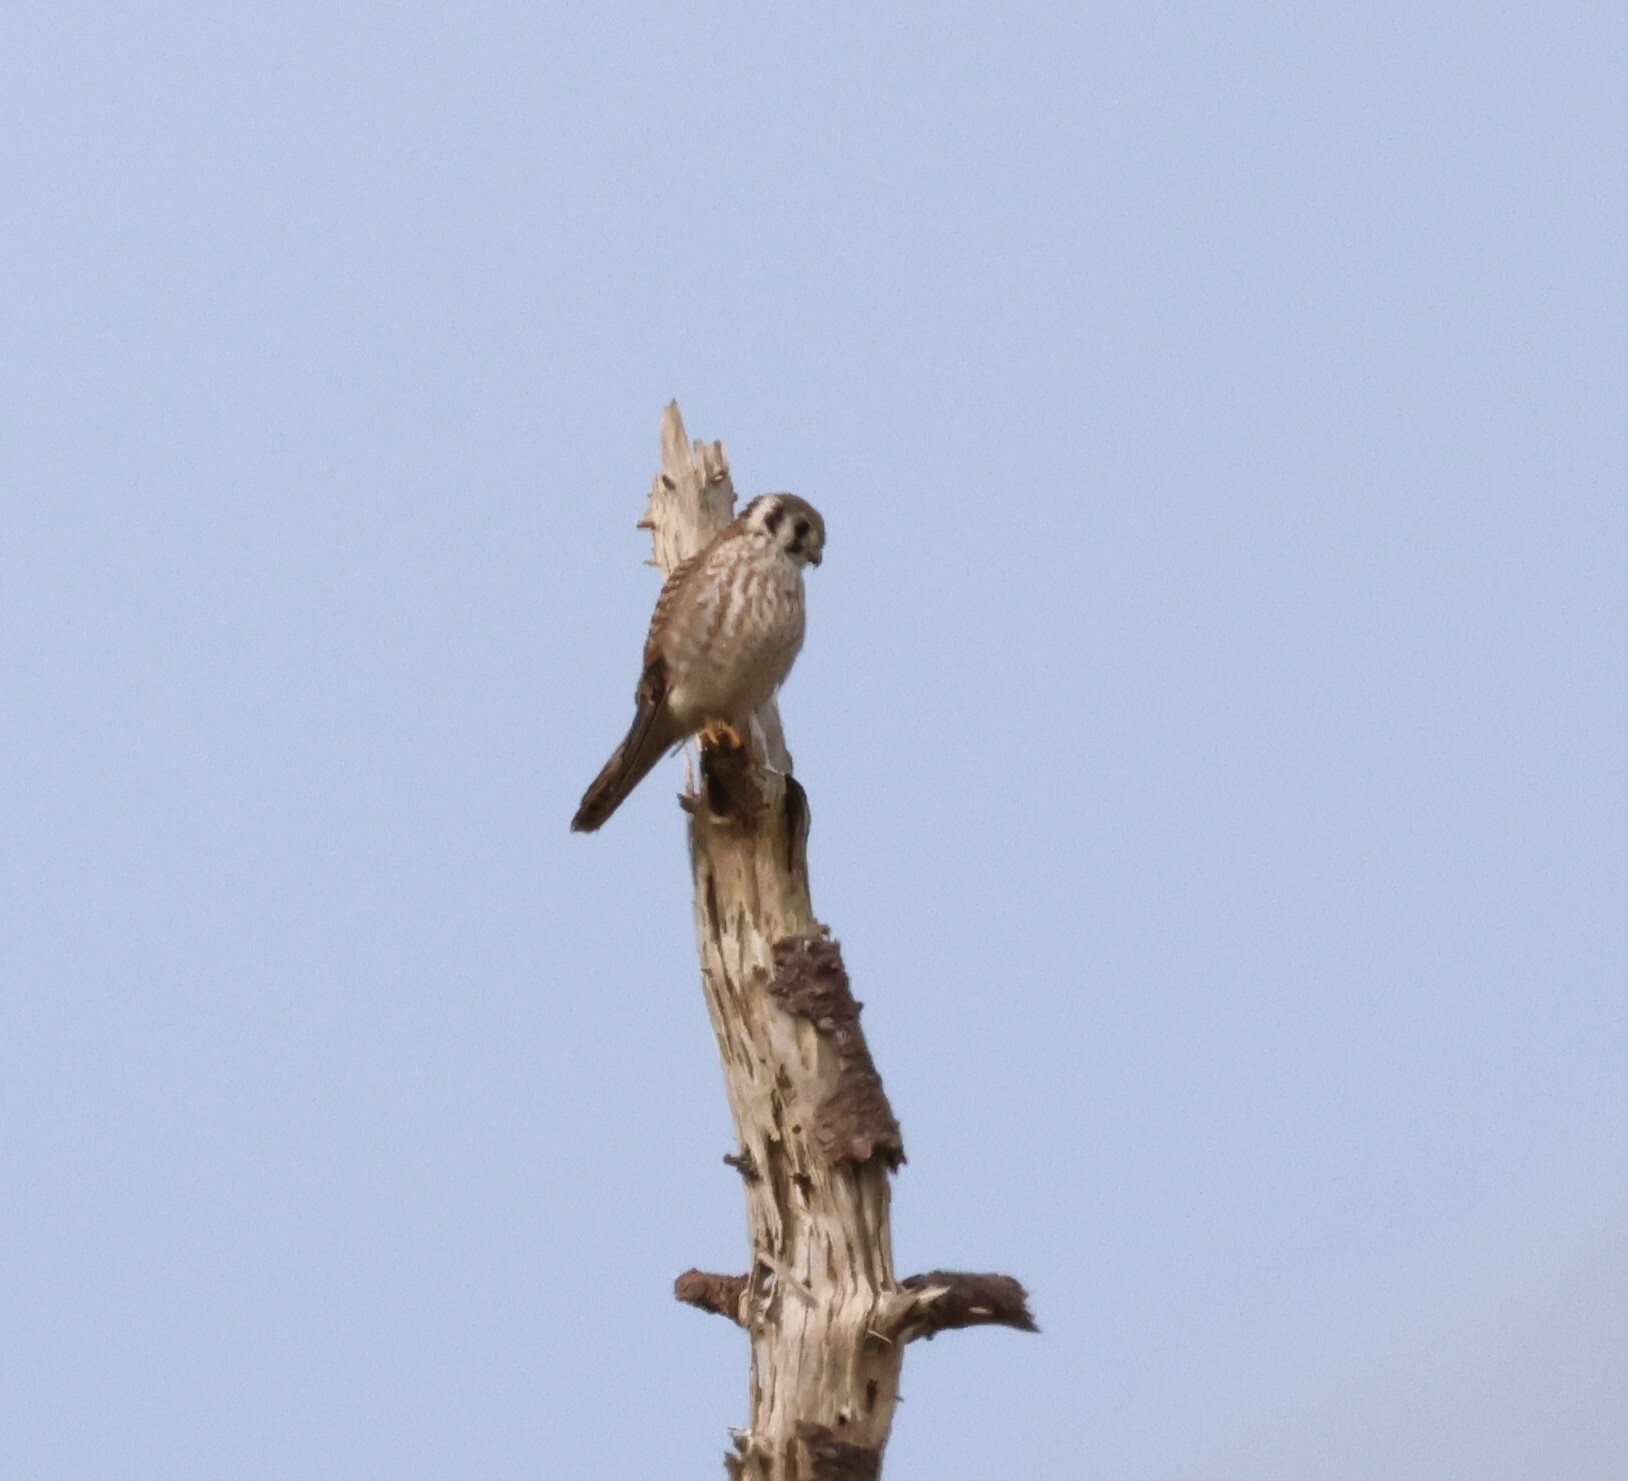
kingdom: Animalia
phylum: Chordata
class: Aves
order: Falconiformes
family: Falconidae
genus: Falco
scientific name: Falco sparverius
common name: American kestrel
